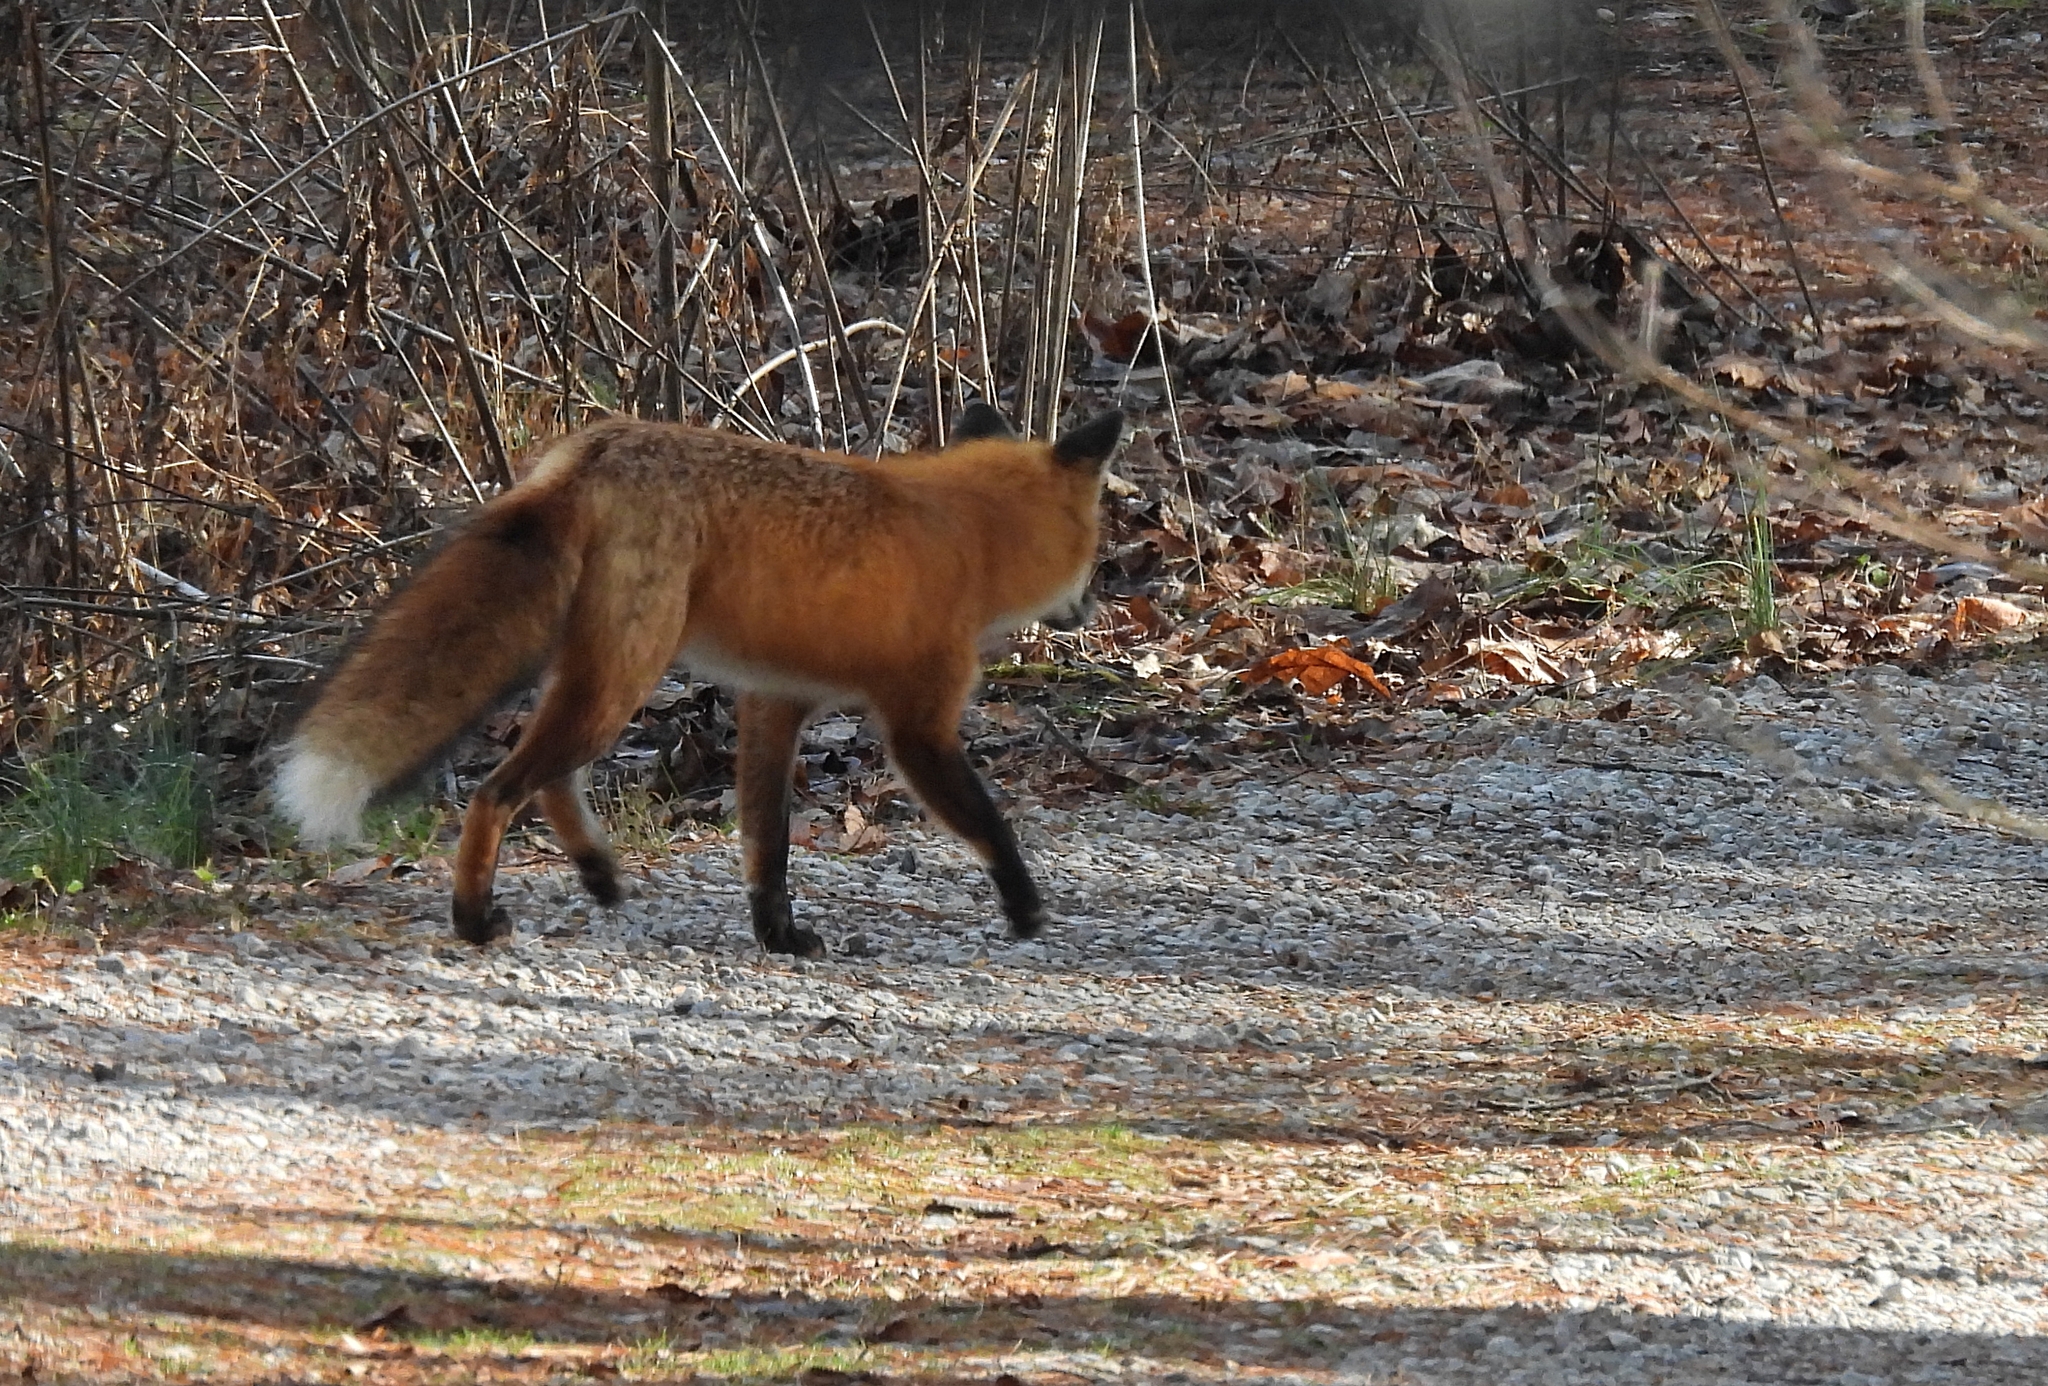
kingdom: Animalia
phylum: Chordata
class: Mammalia
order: Carnivora
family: Canidae
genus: Vulpes
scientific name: Vulpes vulpes
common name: Red fox
